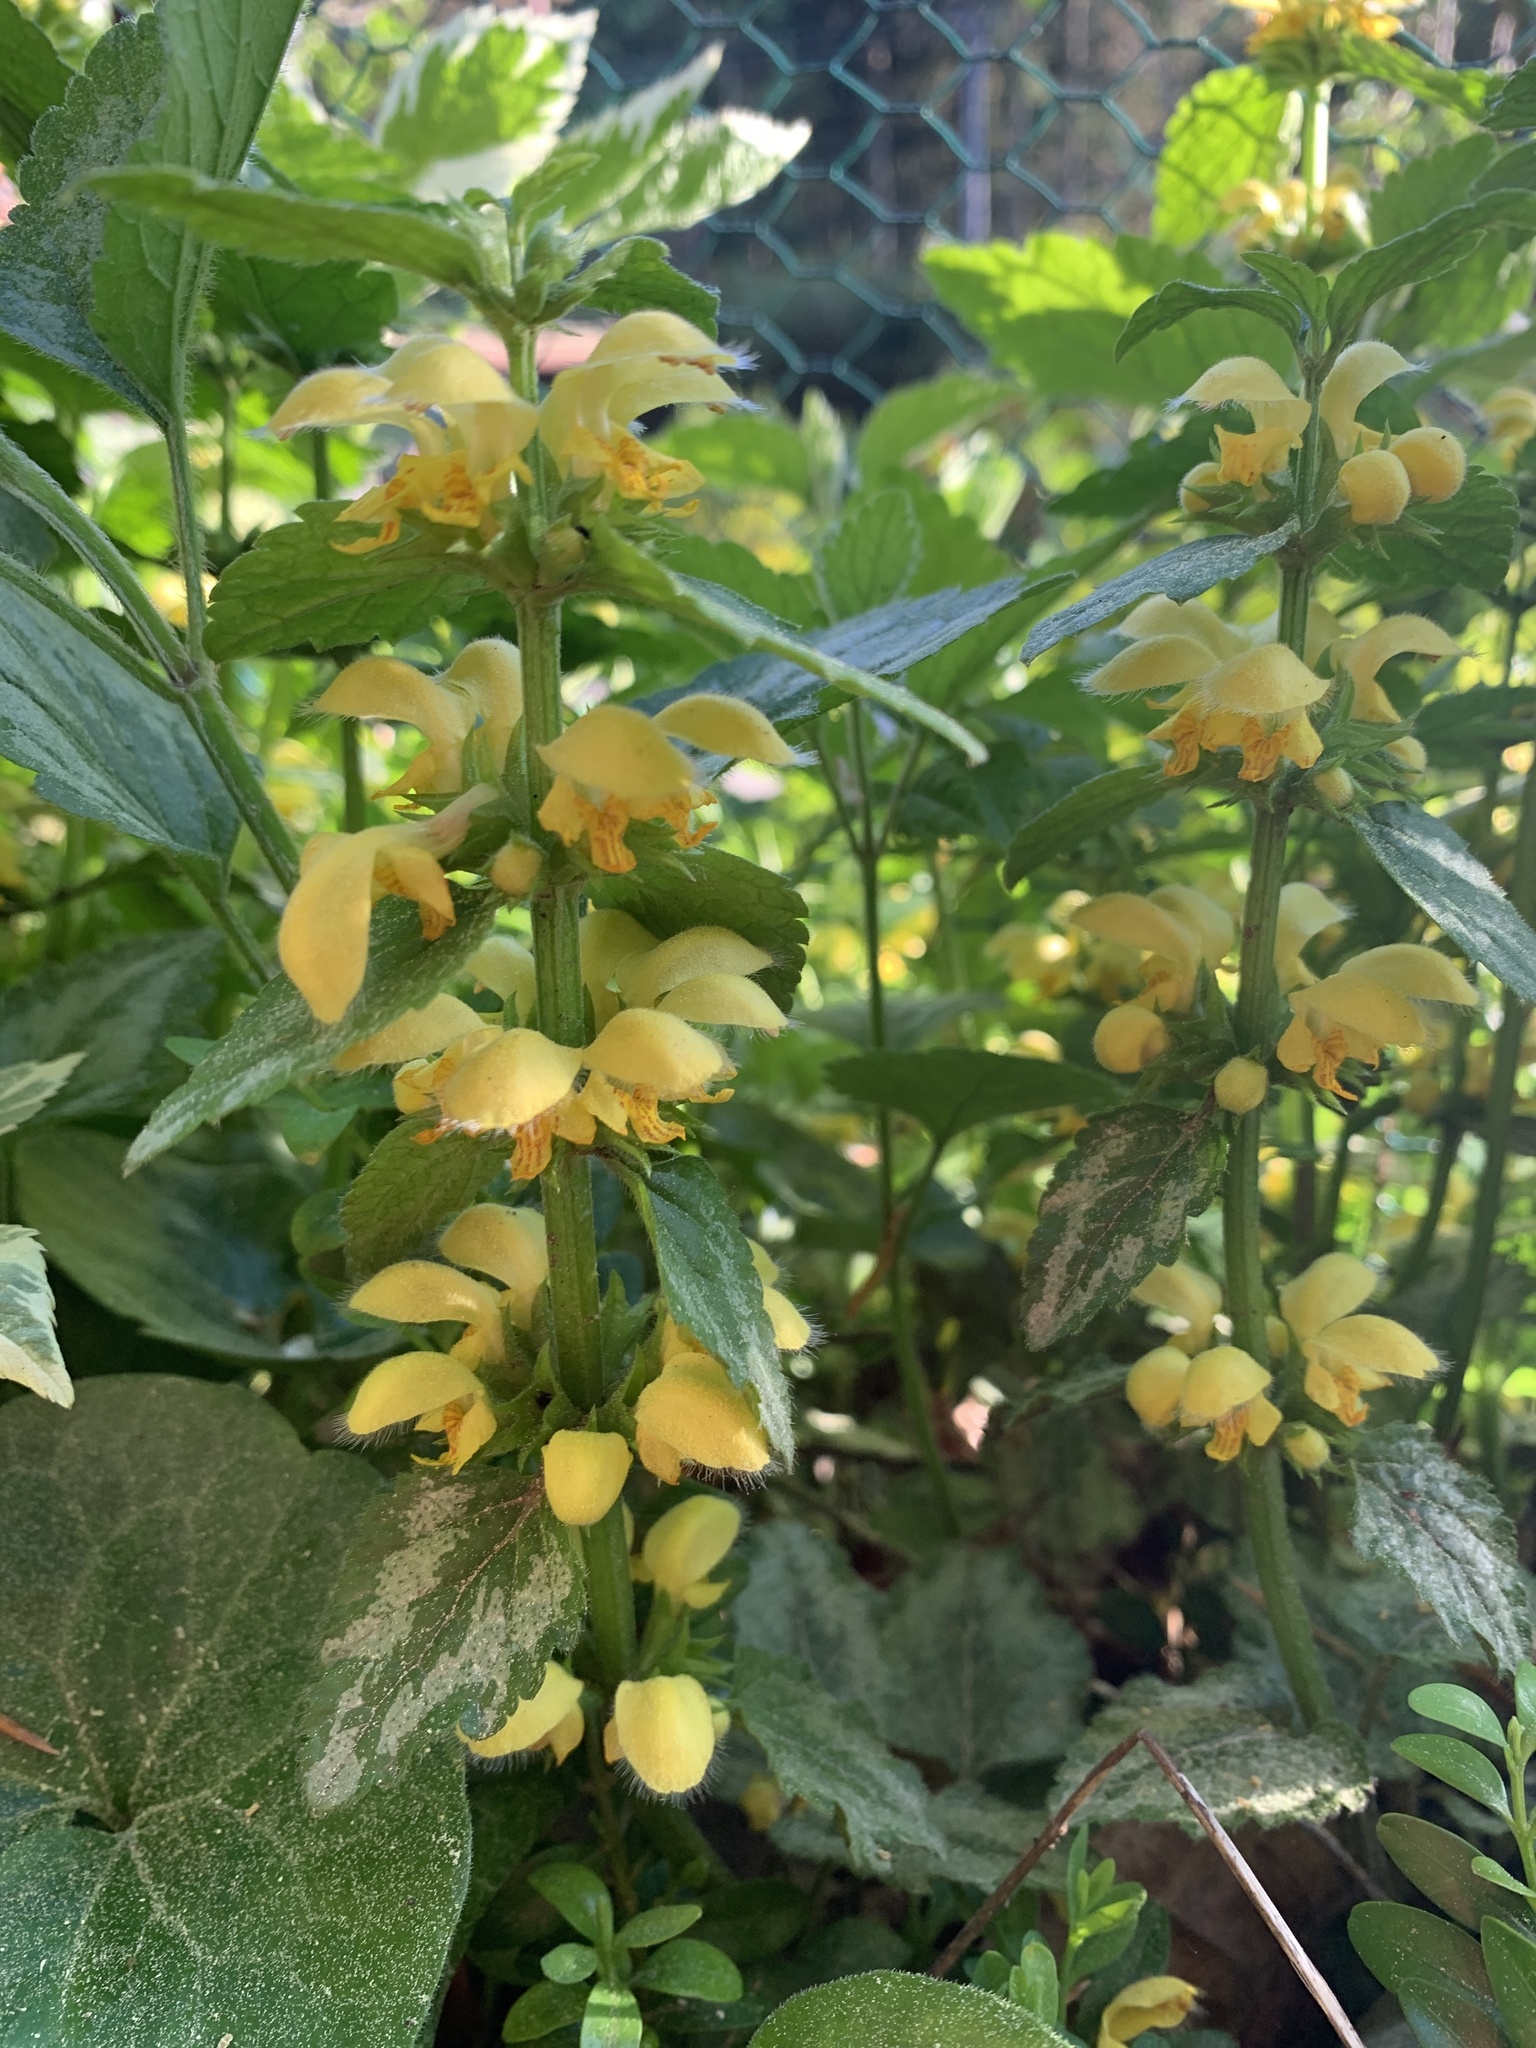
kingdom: Plantae
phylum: Tracheophyta
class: Magnoliopsida
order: Lamiales
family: Lamiaceae
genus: Lamium
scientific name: Lamium galeobdolon
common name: Yellow archangel
